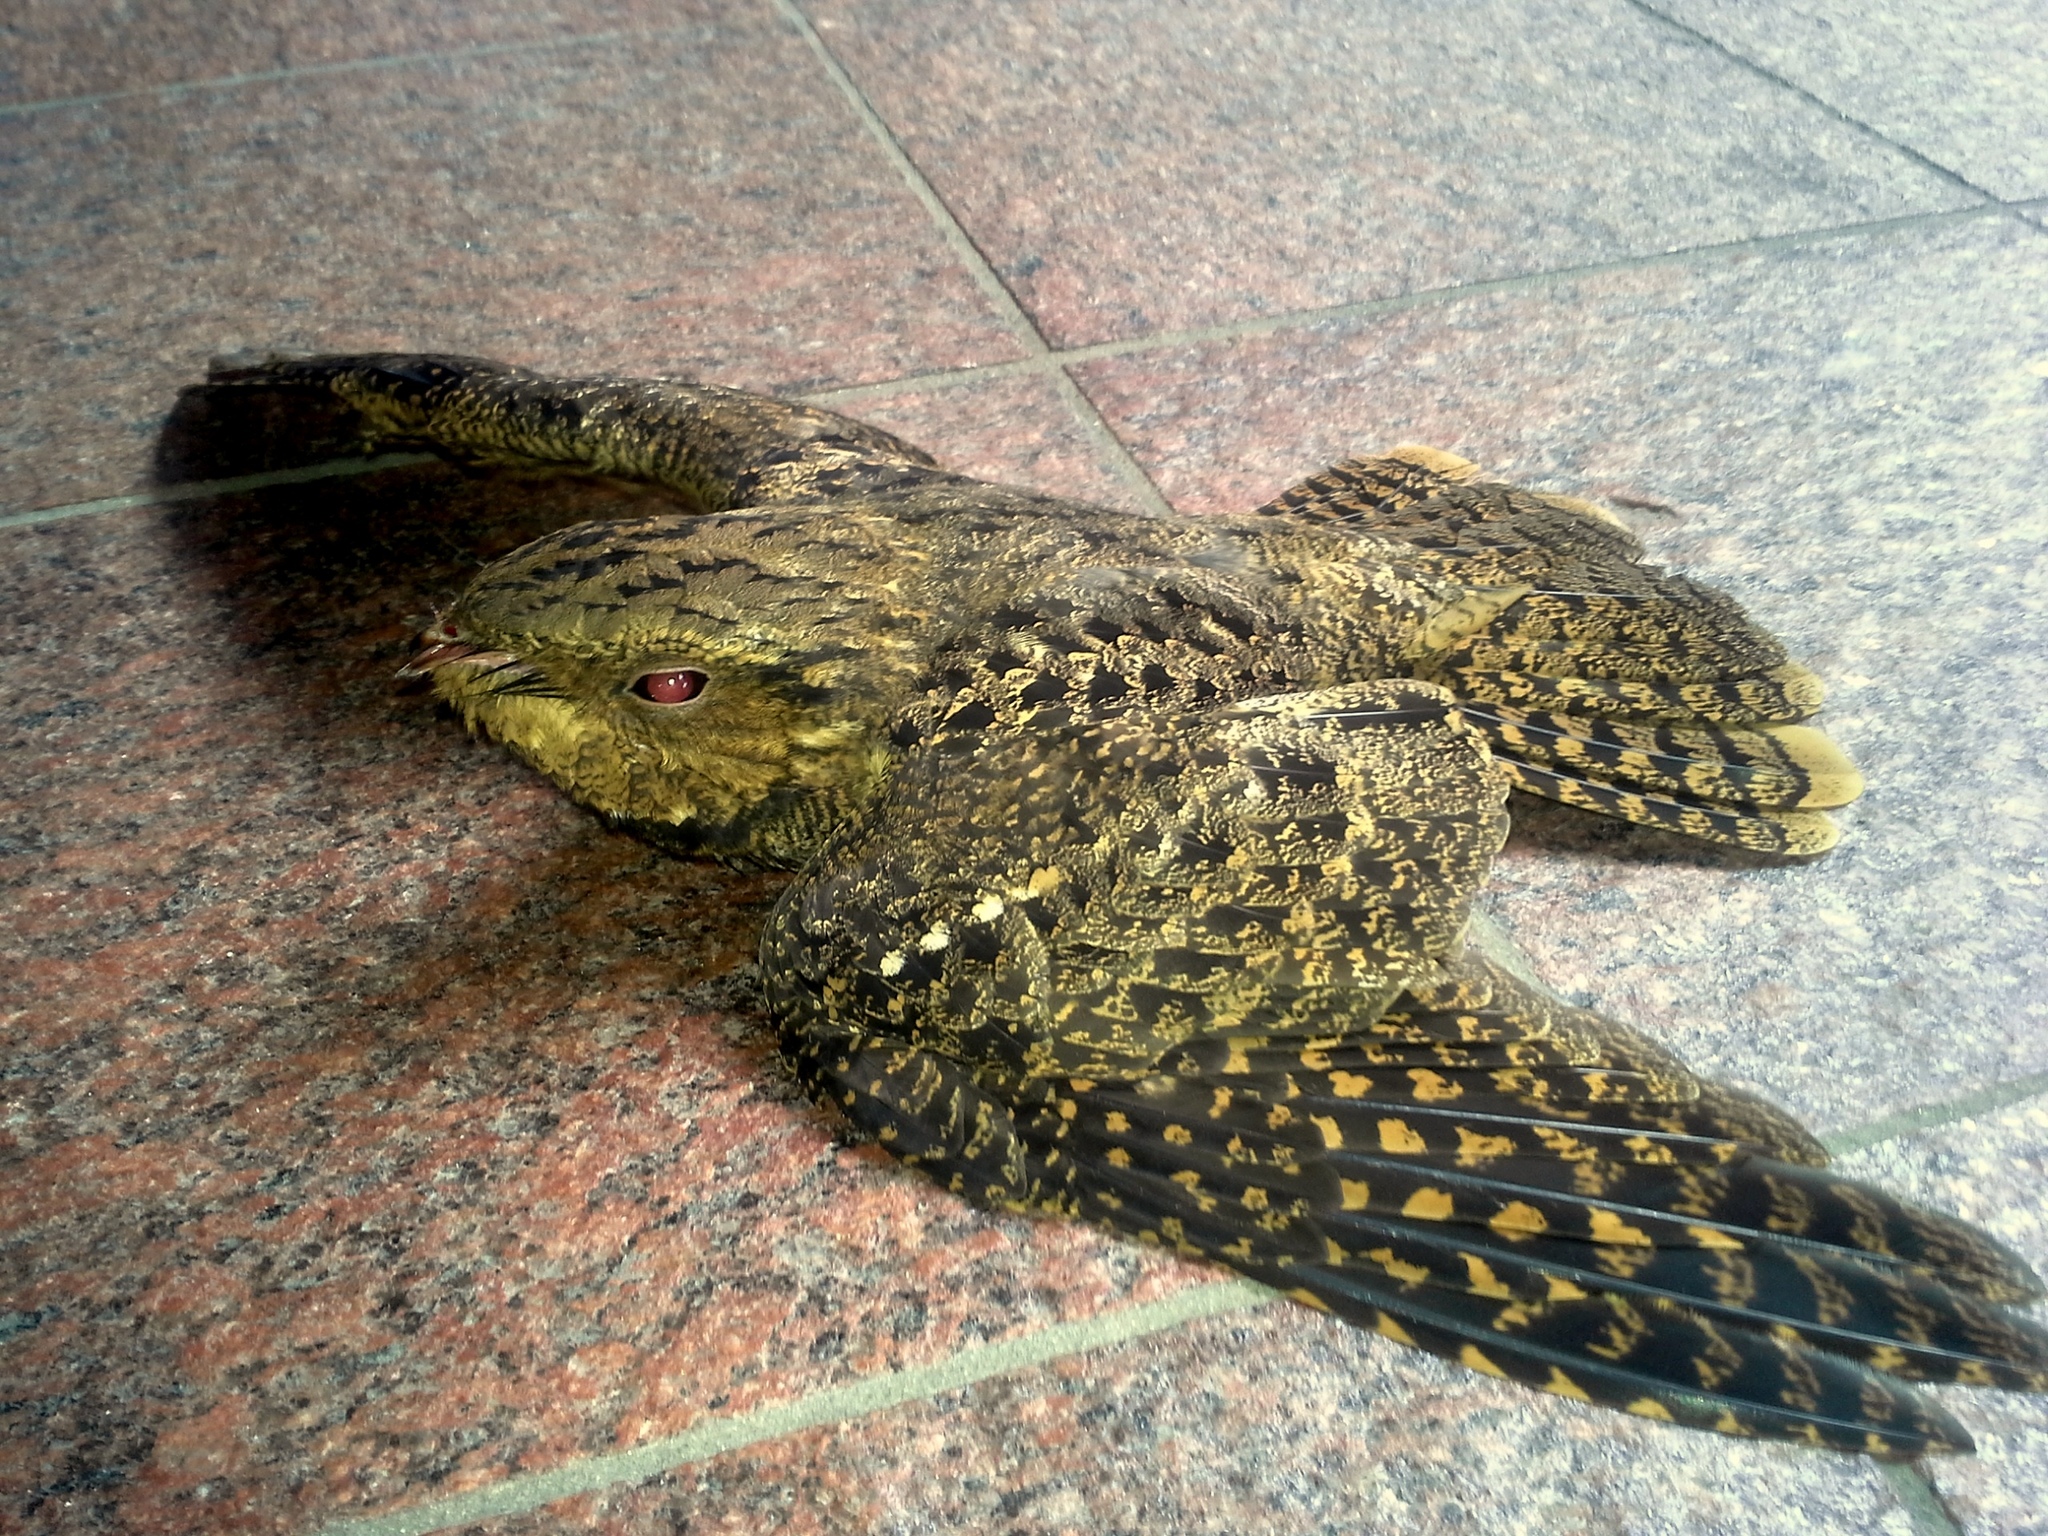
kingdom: Animalia
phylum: Chordata
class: Aves
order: Caprimulgiformes
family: Caprimulgidae
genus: Antrostomus
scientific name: Antrostomus carolinensis
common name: Chuck-will's-widow
